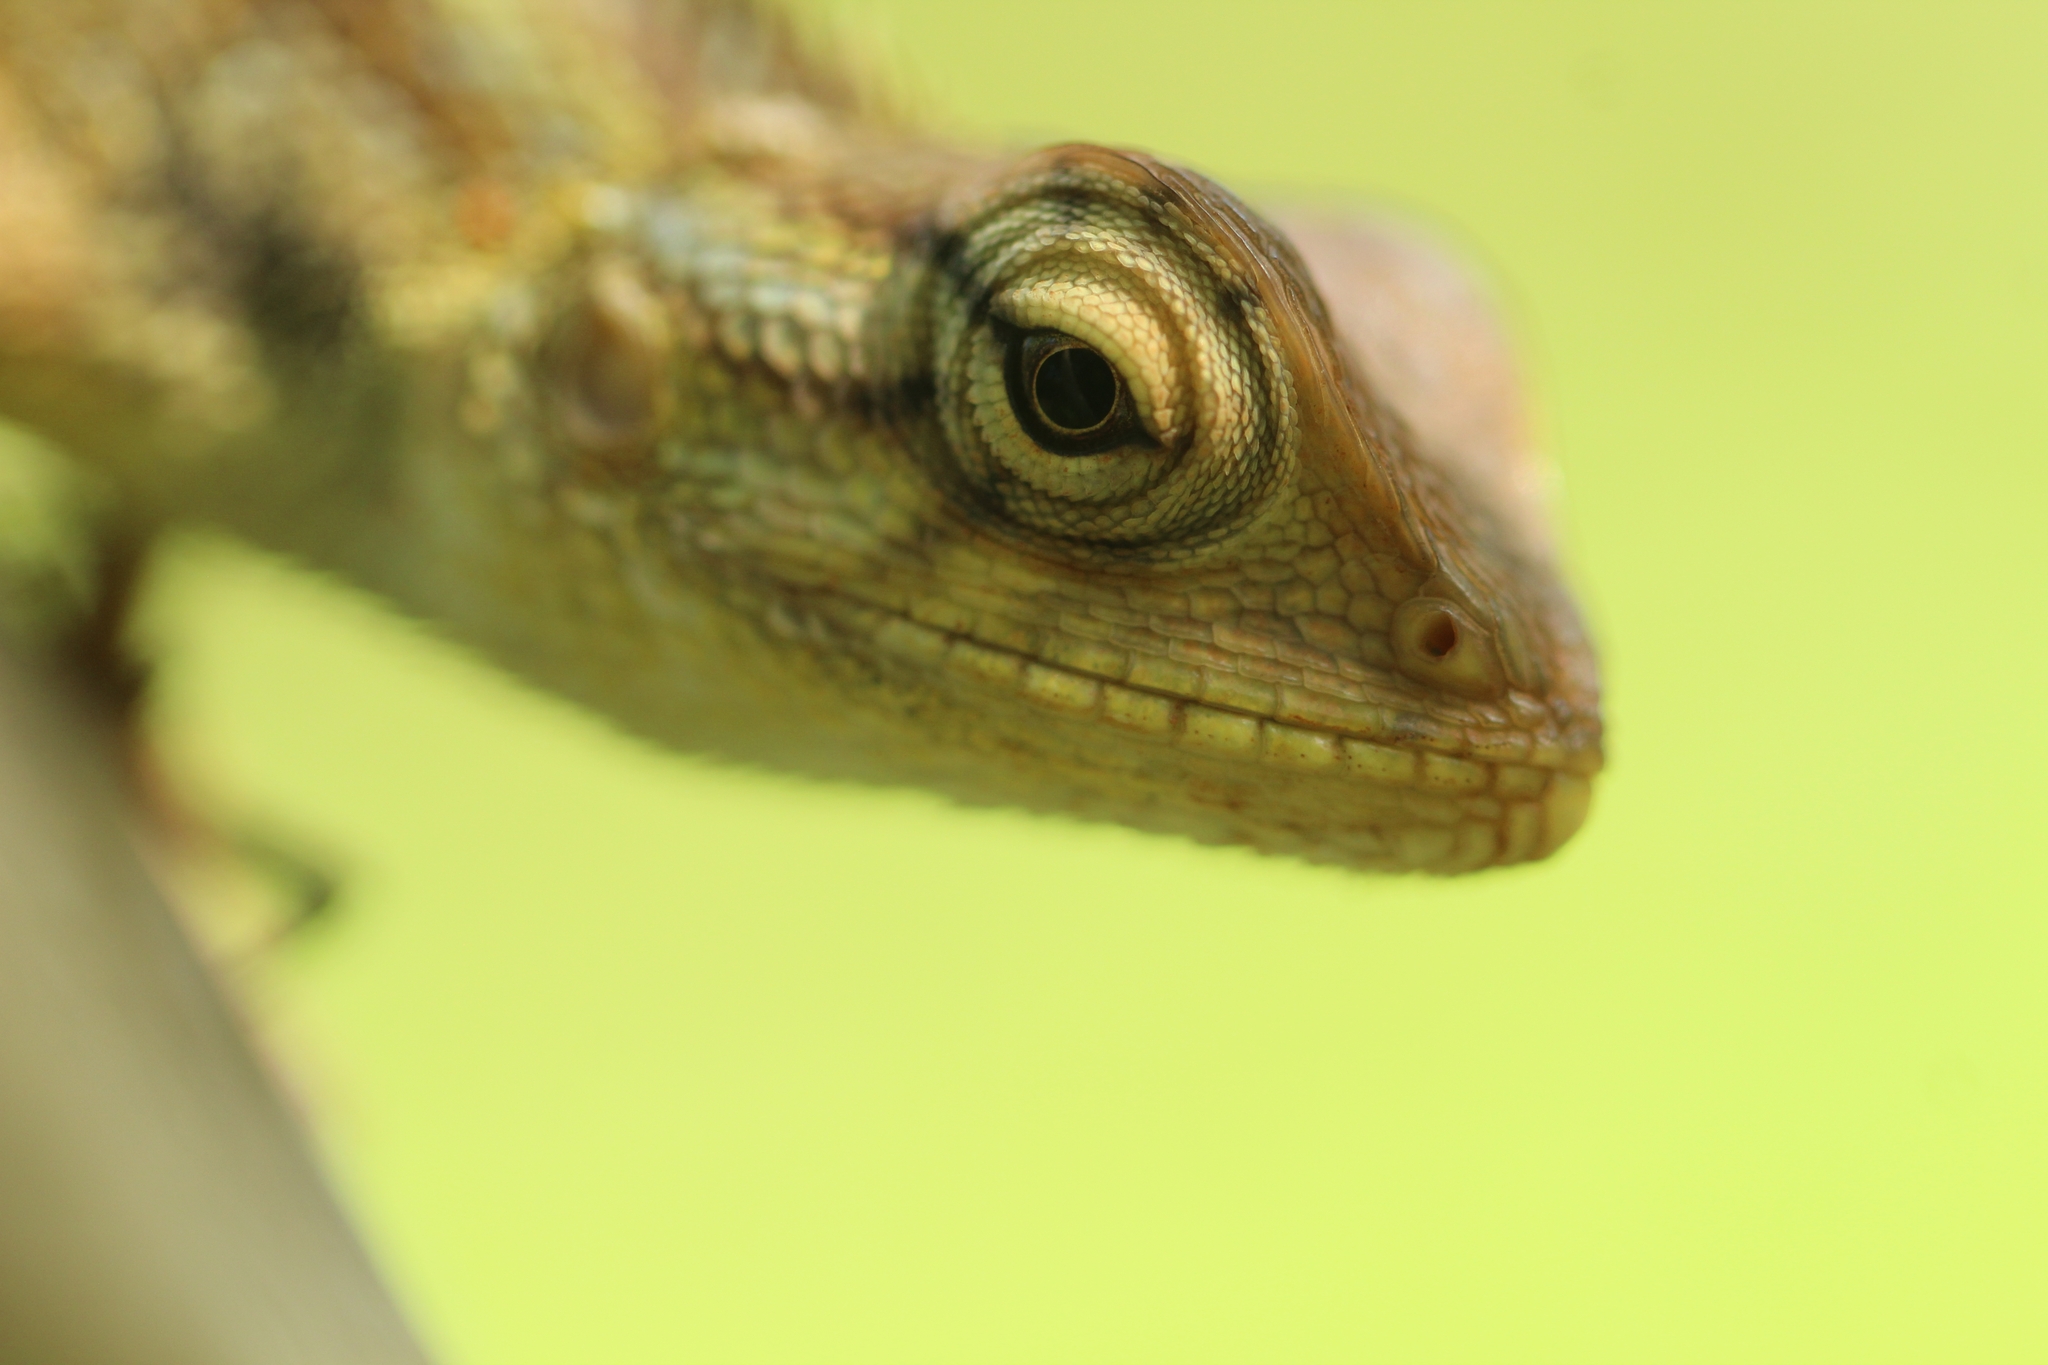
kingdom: Animalia
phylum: Chordata
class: Squamata
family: Agamidae
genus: Calotes
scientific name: Calotes versicolor
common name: Oriental garden lizard
